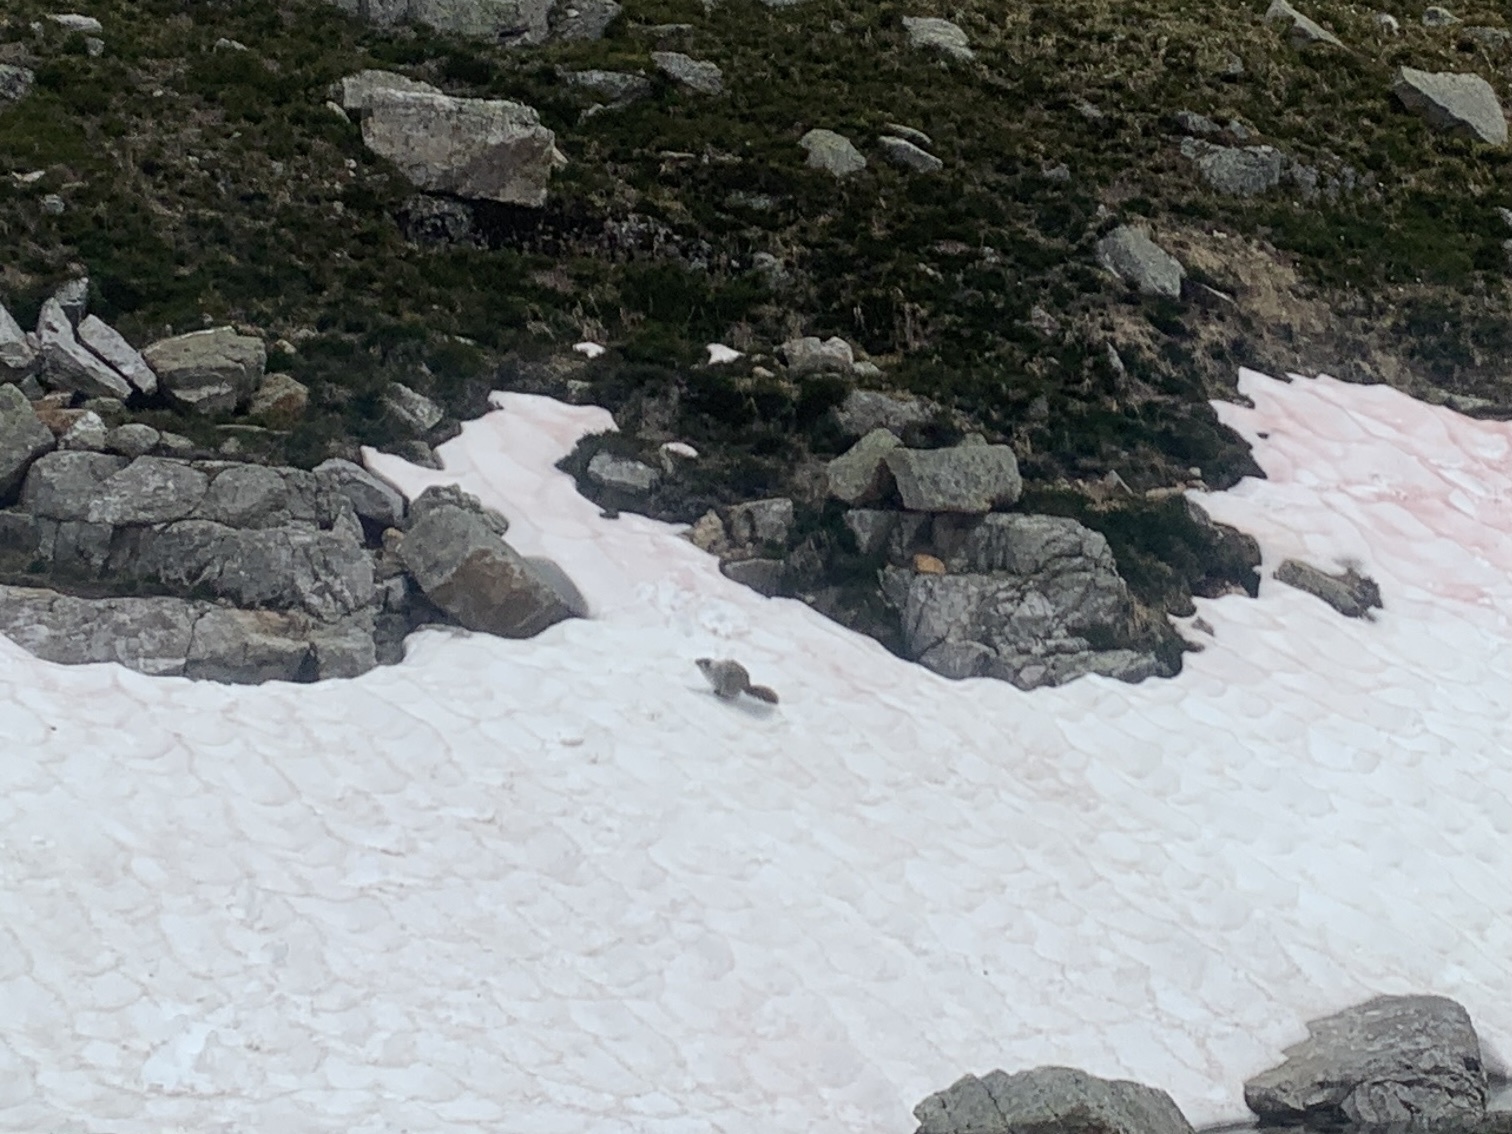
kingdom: Animalia
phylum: Chordata
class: Mammalia
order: Rodentia
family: Sciuridae
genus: Marmota
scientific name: Marmota caligata
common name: Hoary marmot
